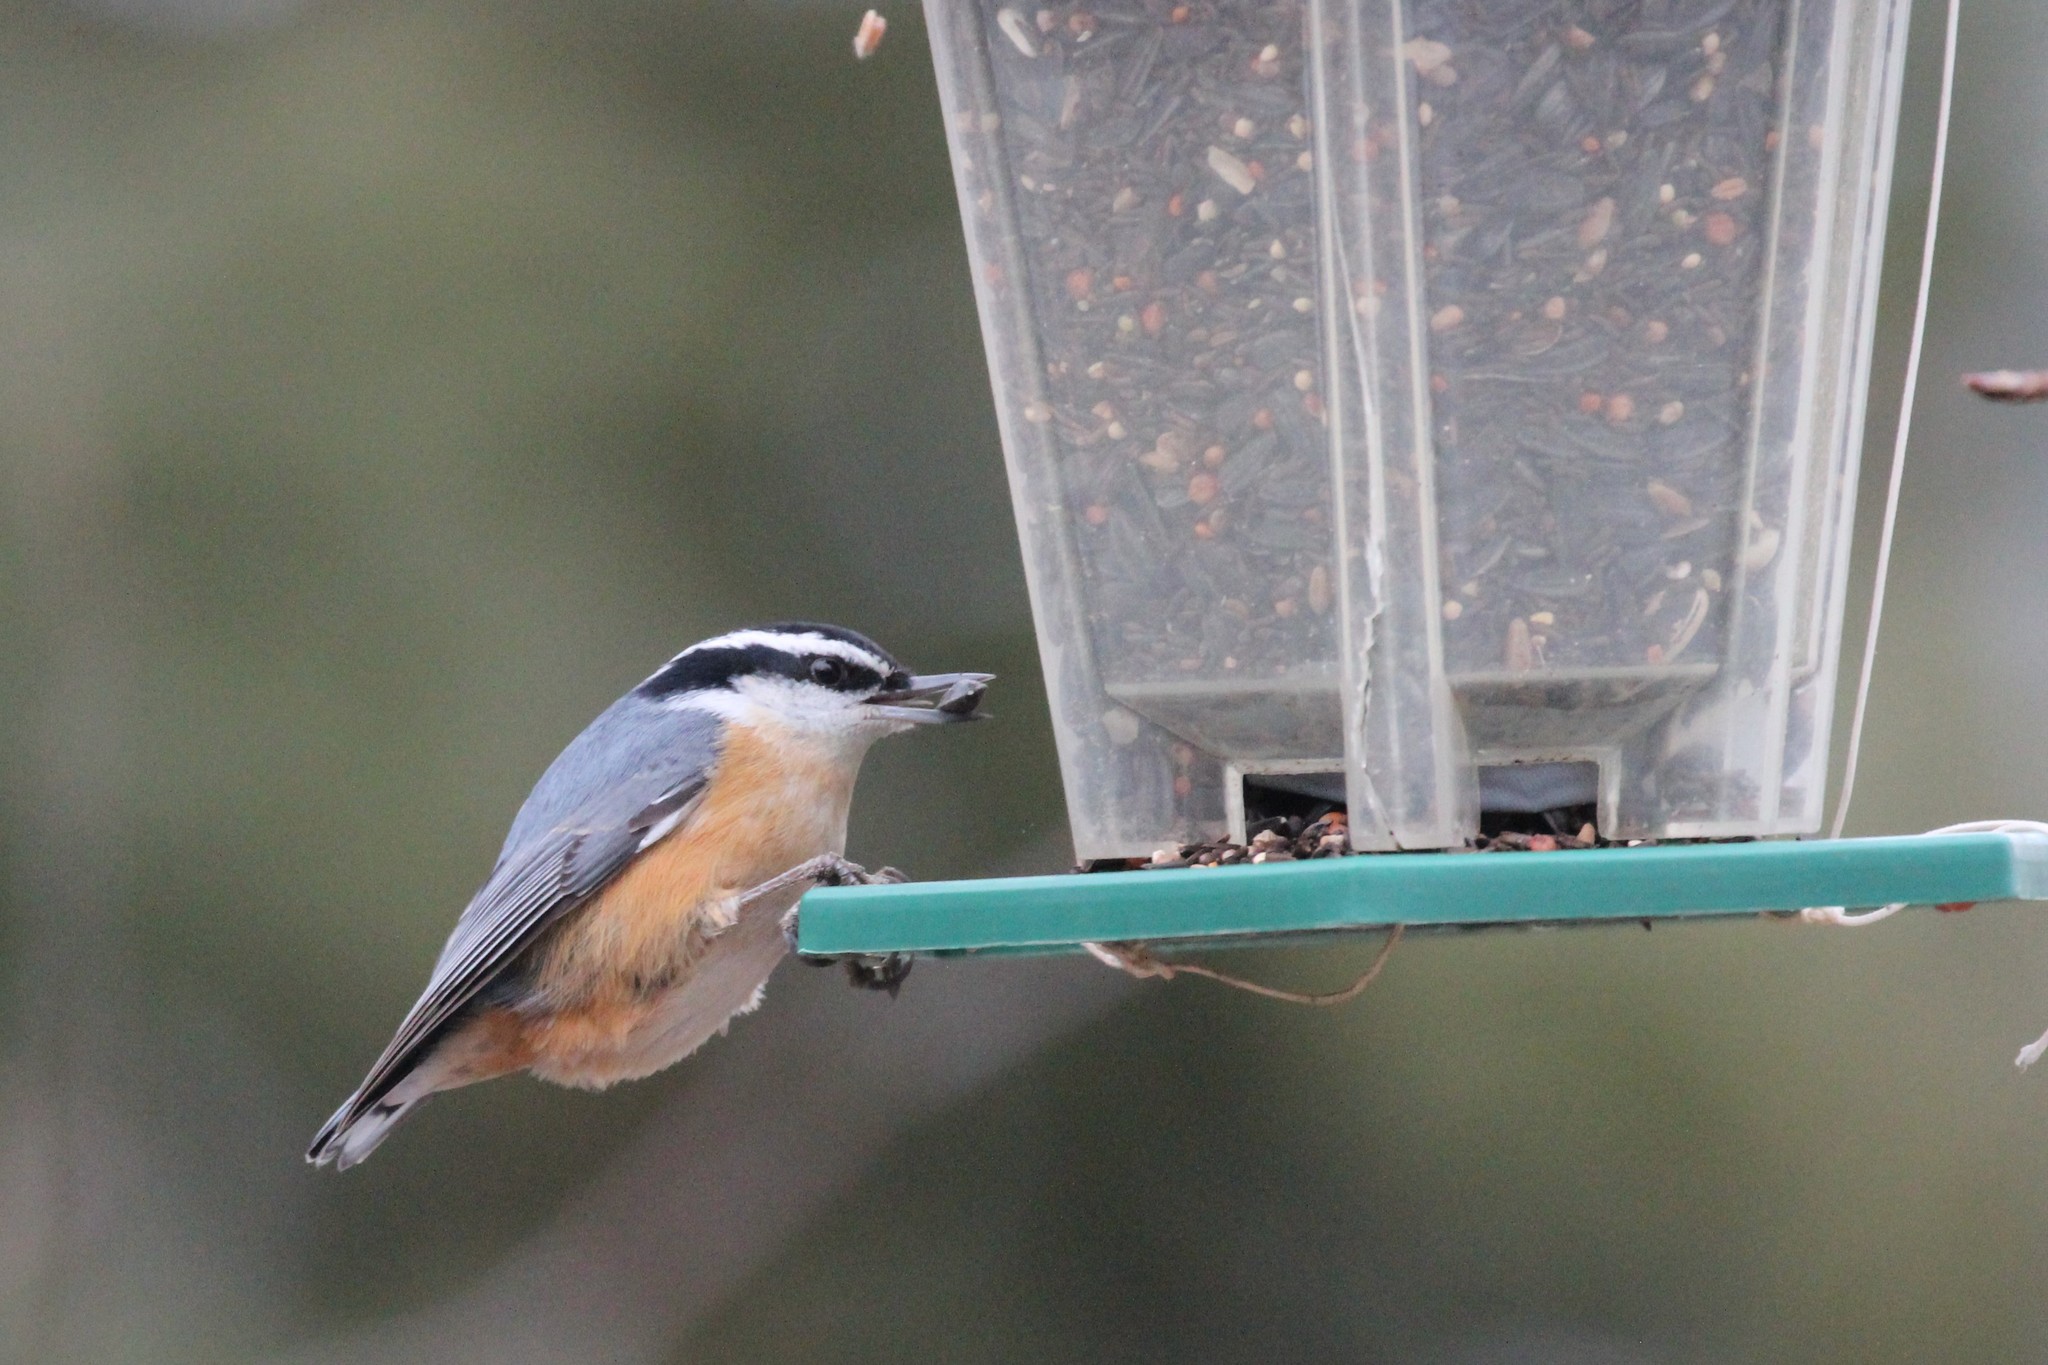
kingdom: Animalia
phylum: Chordata
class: Aves
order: Passeriformes
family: Sittidae
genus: Sitta
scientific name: Sitta canadensis
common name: Red-breasted nuthatch
